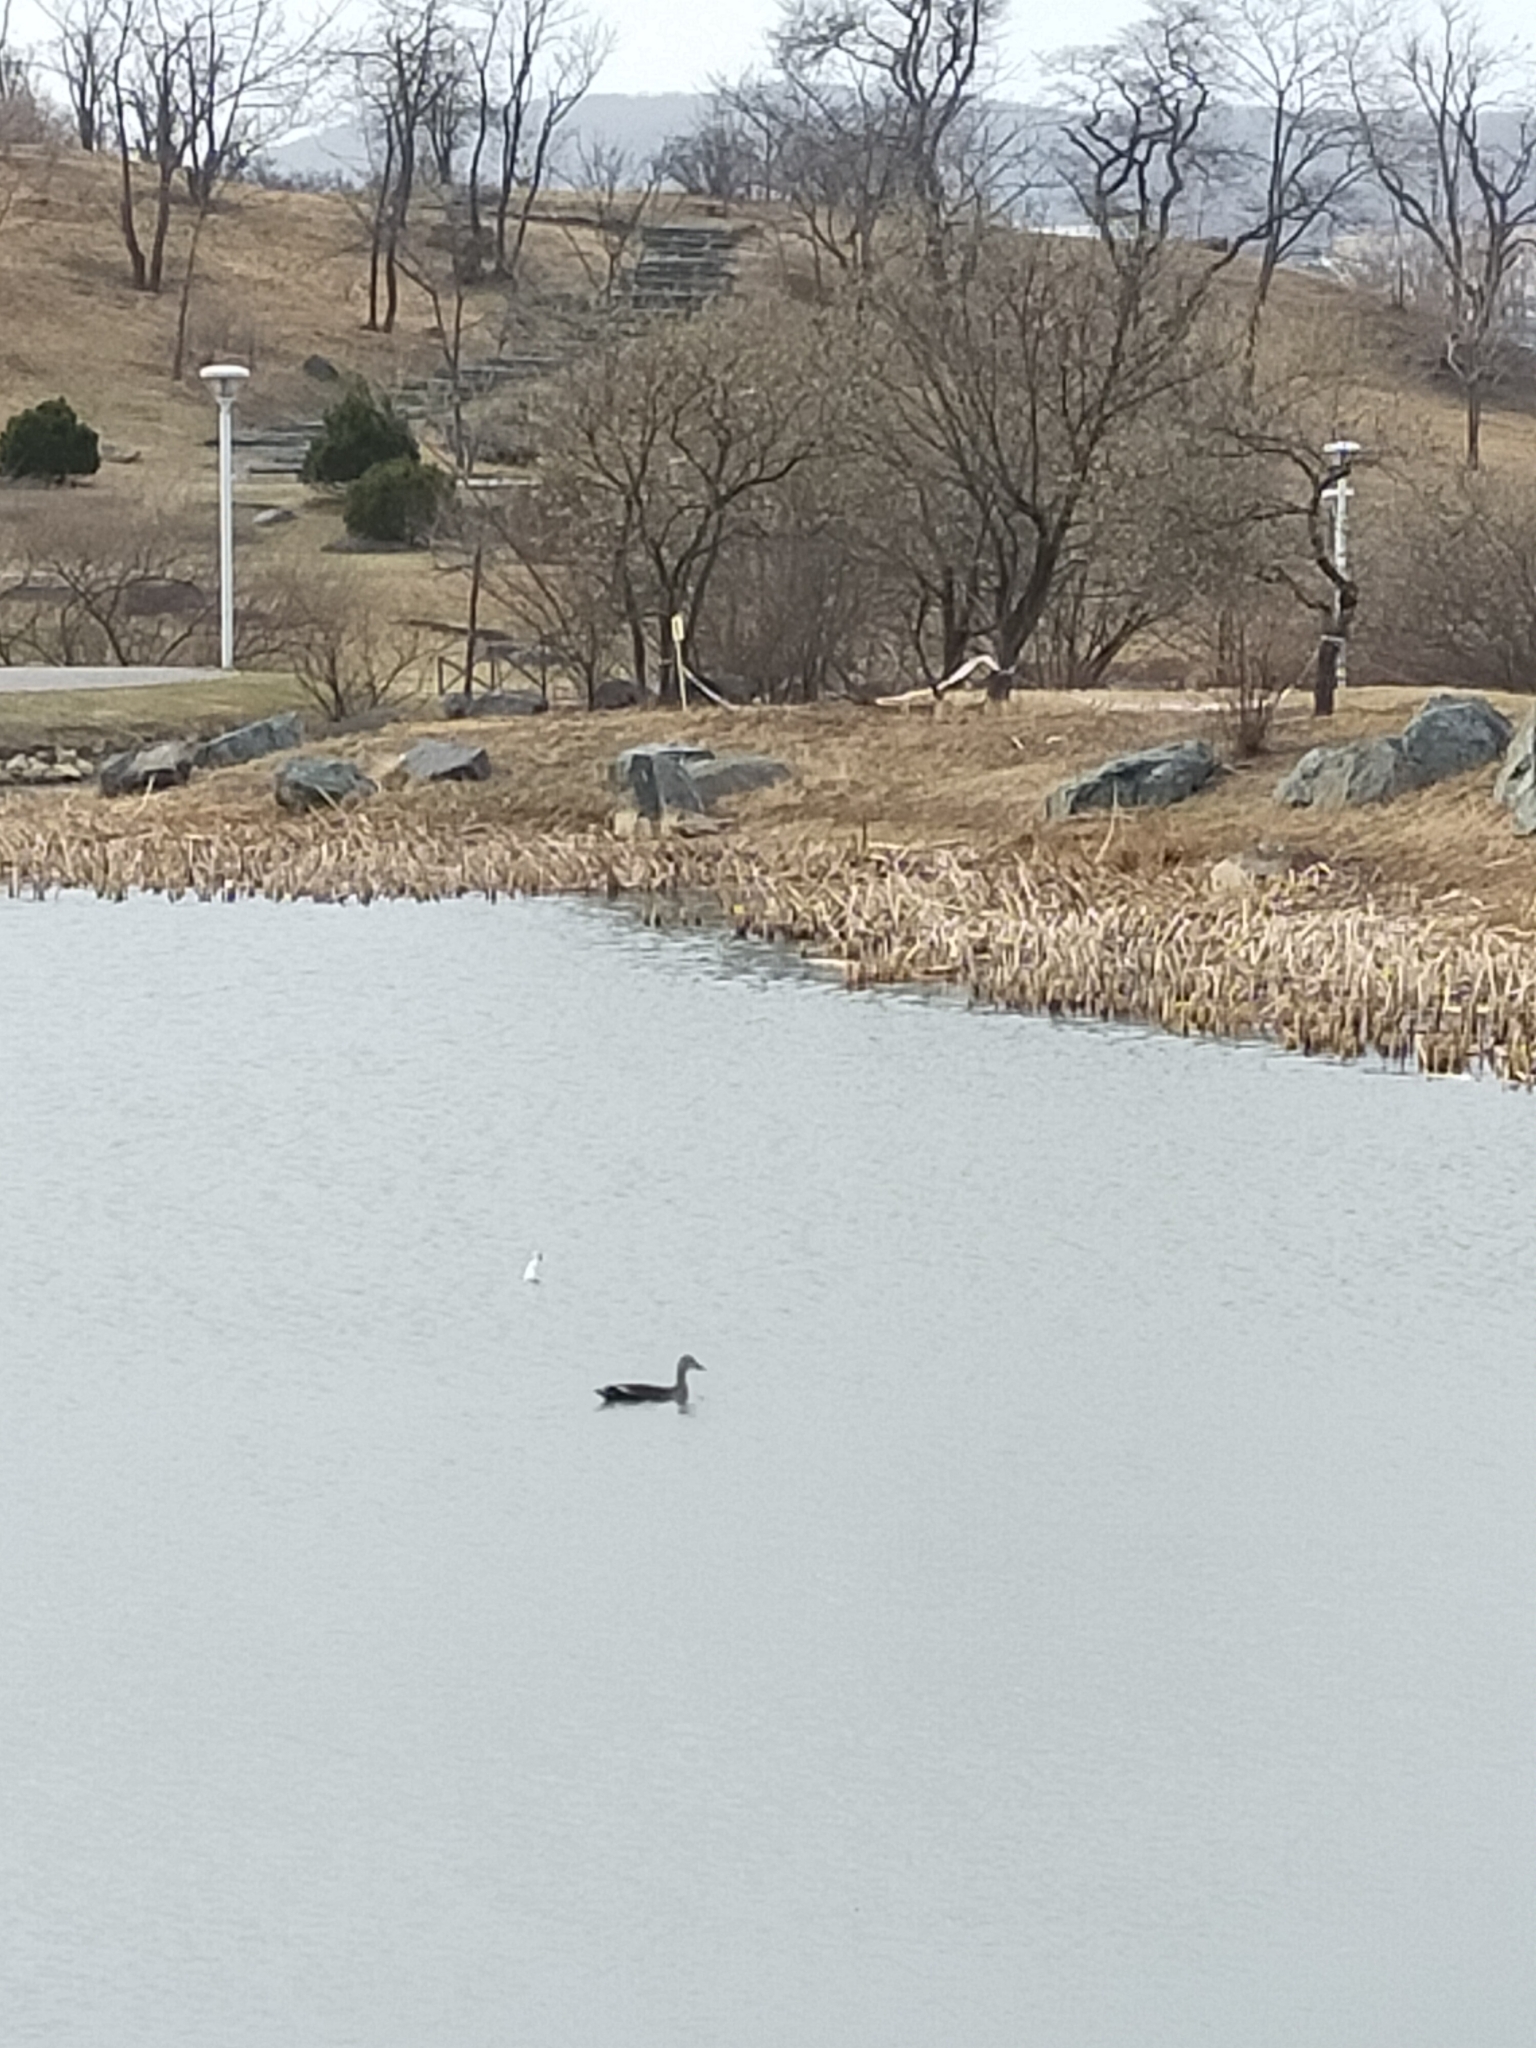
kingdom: Animalia
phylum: Chordata
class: Aves
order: Anseriformes
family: Anatidae
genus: Anas
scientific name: Anas zonorhyncha
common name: Eastern spot-billed duck
